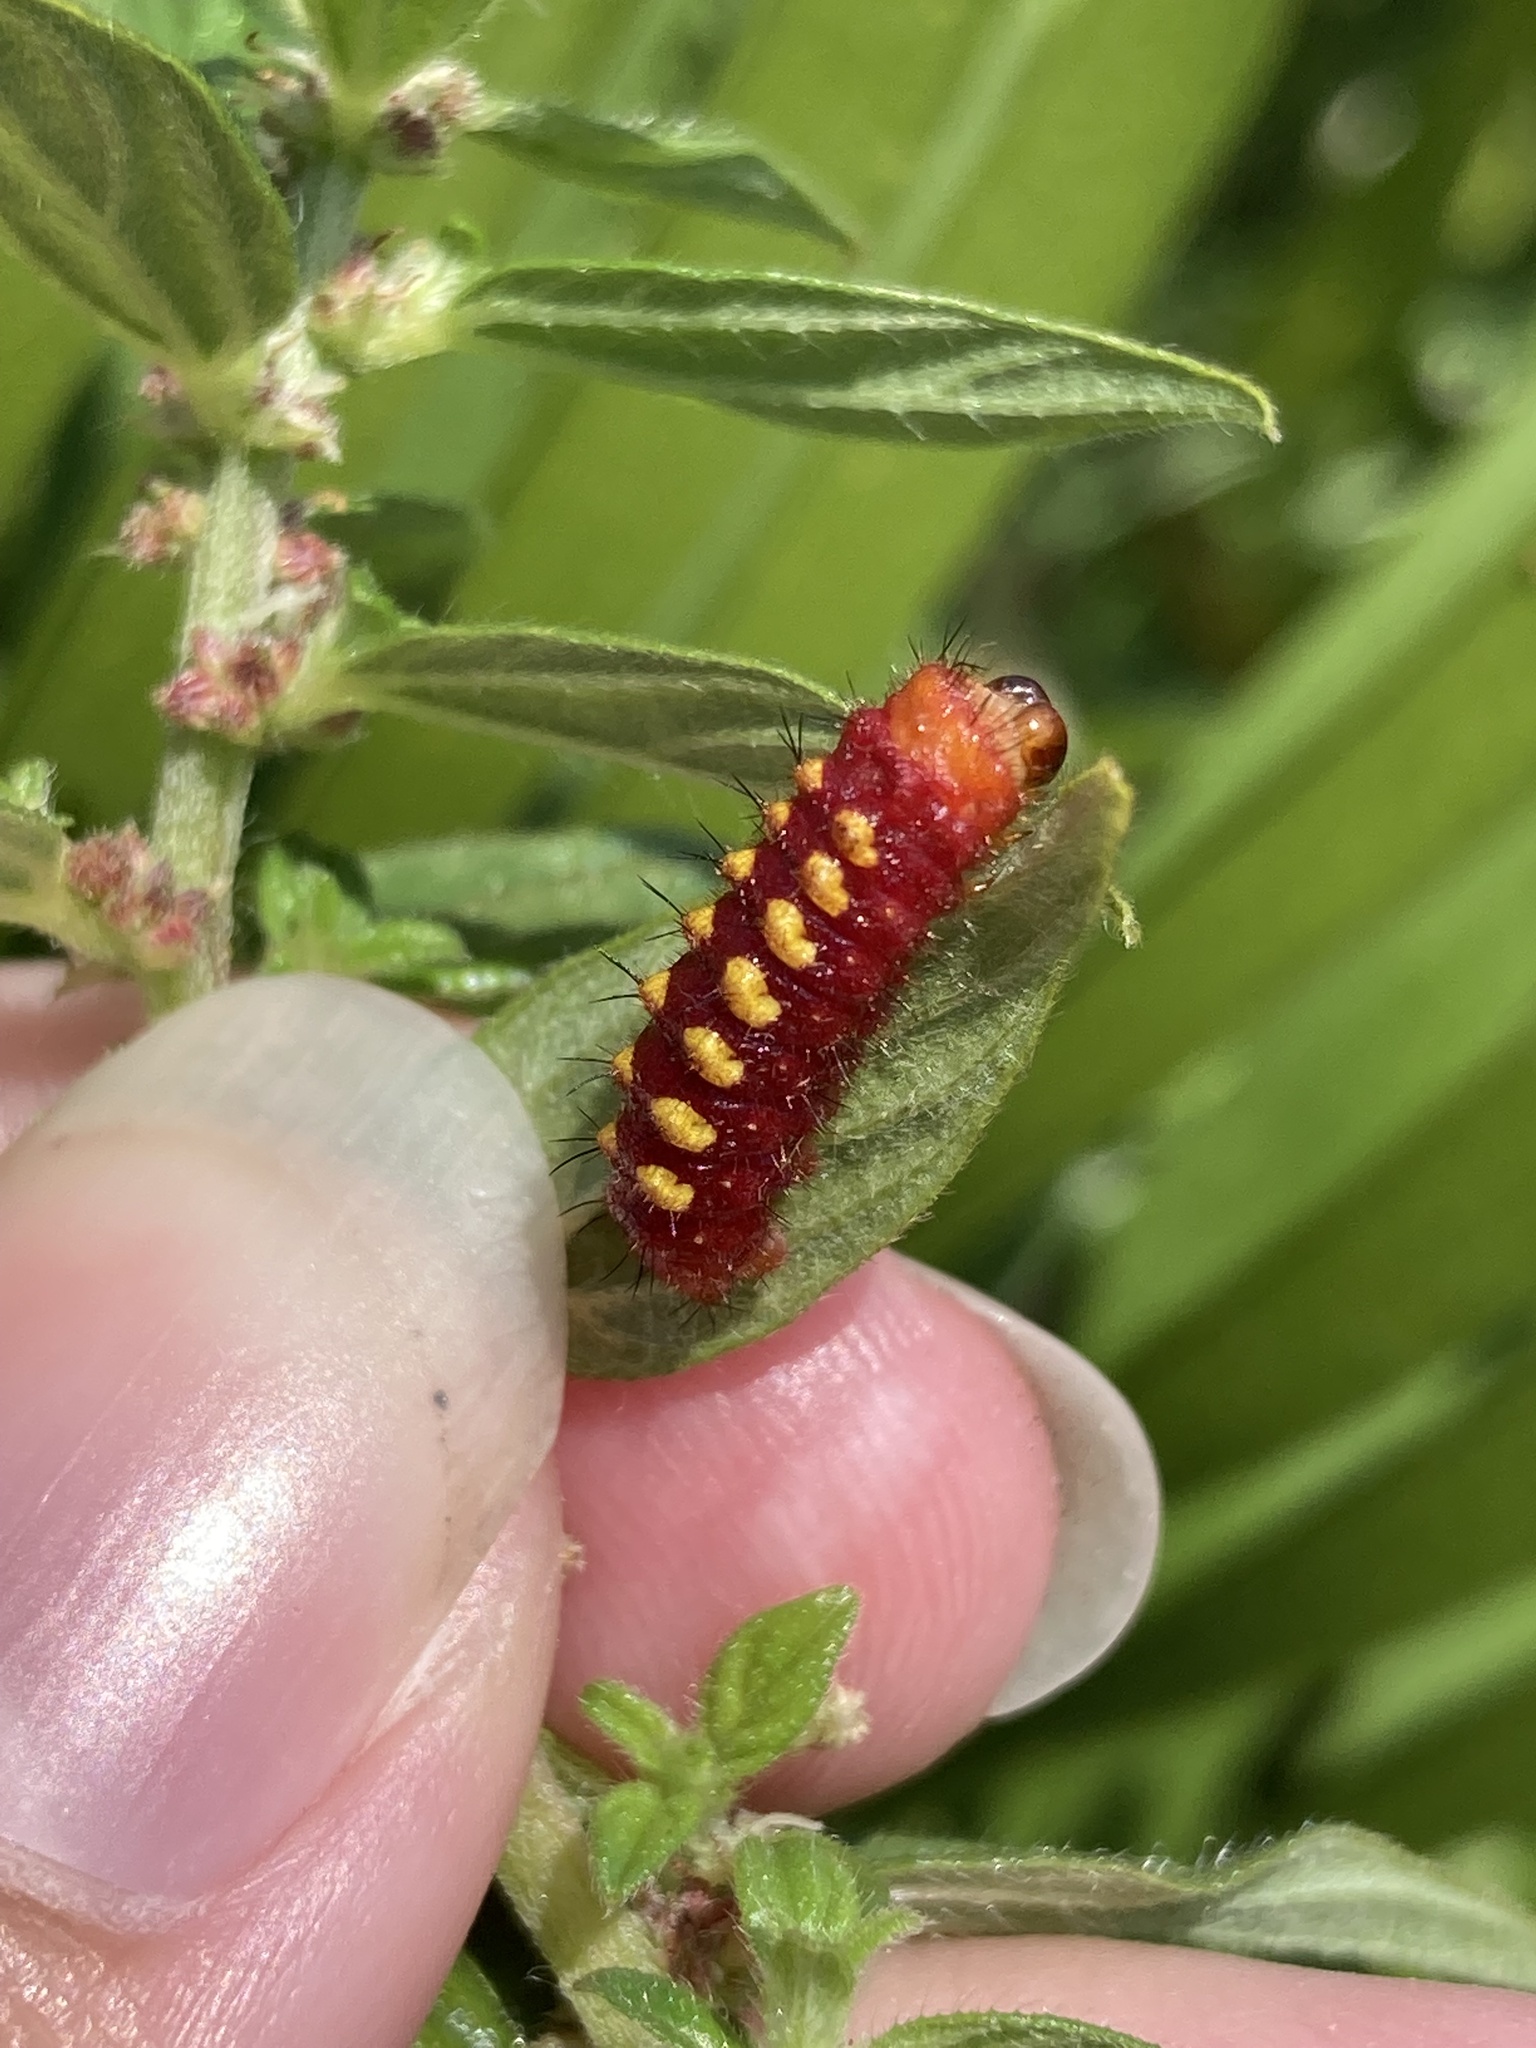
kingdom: Animalia
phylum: Arthropoda
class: Insecta
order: Lepidoptera
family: Lycaenidae
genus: Eumaeus
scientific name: Eumaeus atala
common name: Atala
